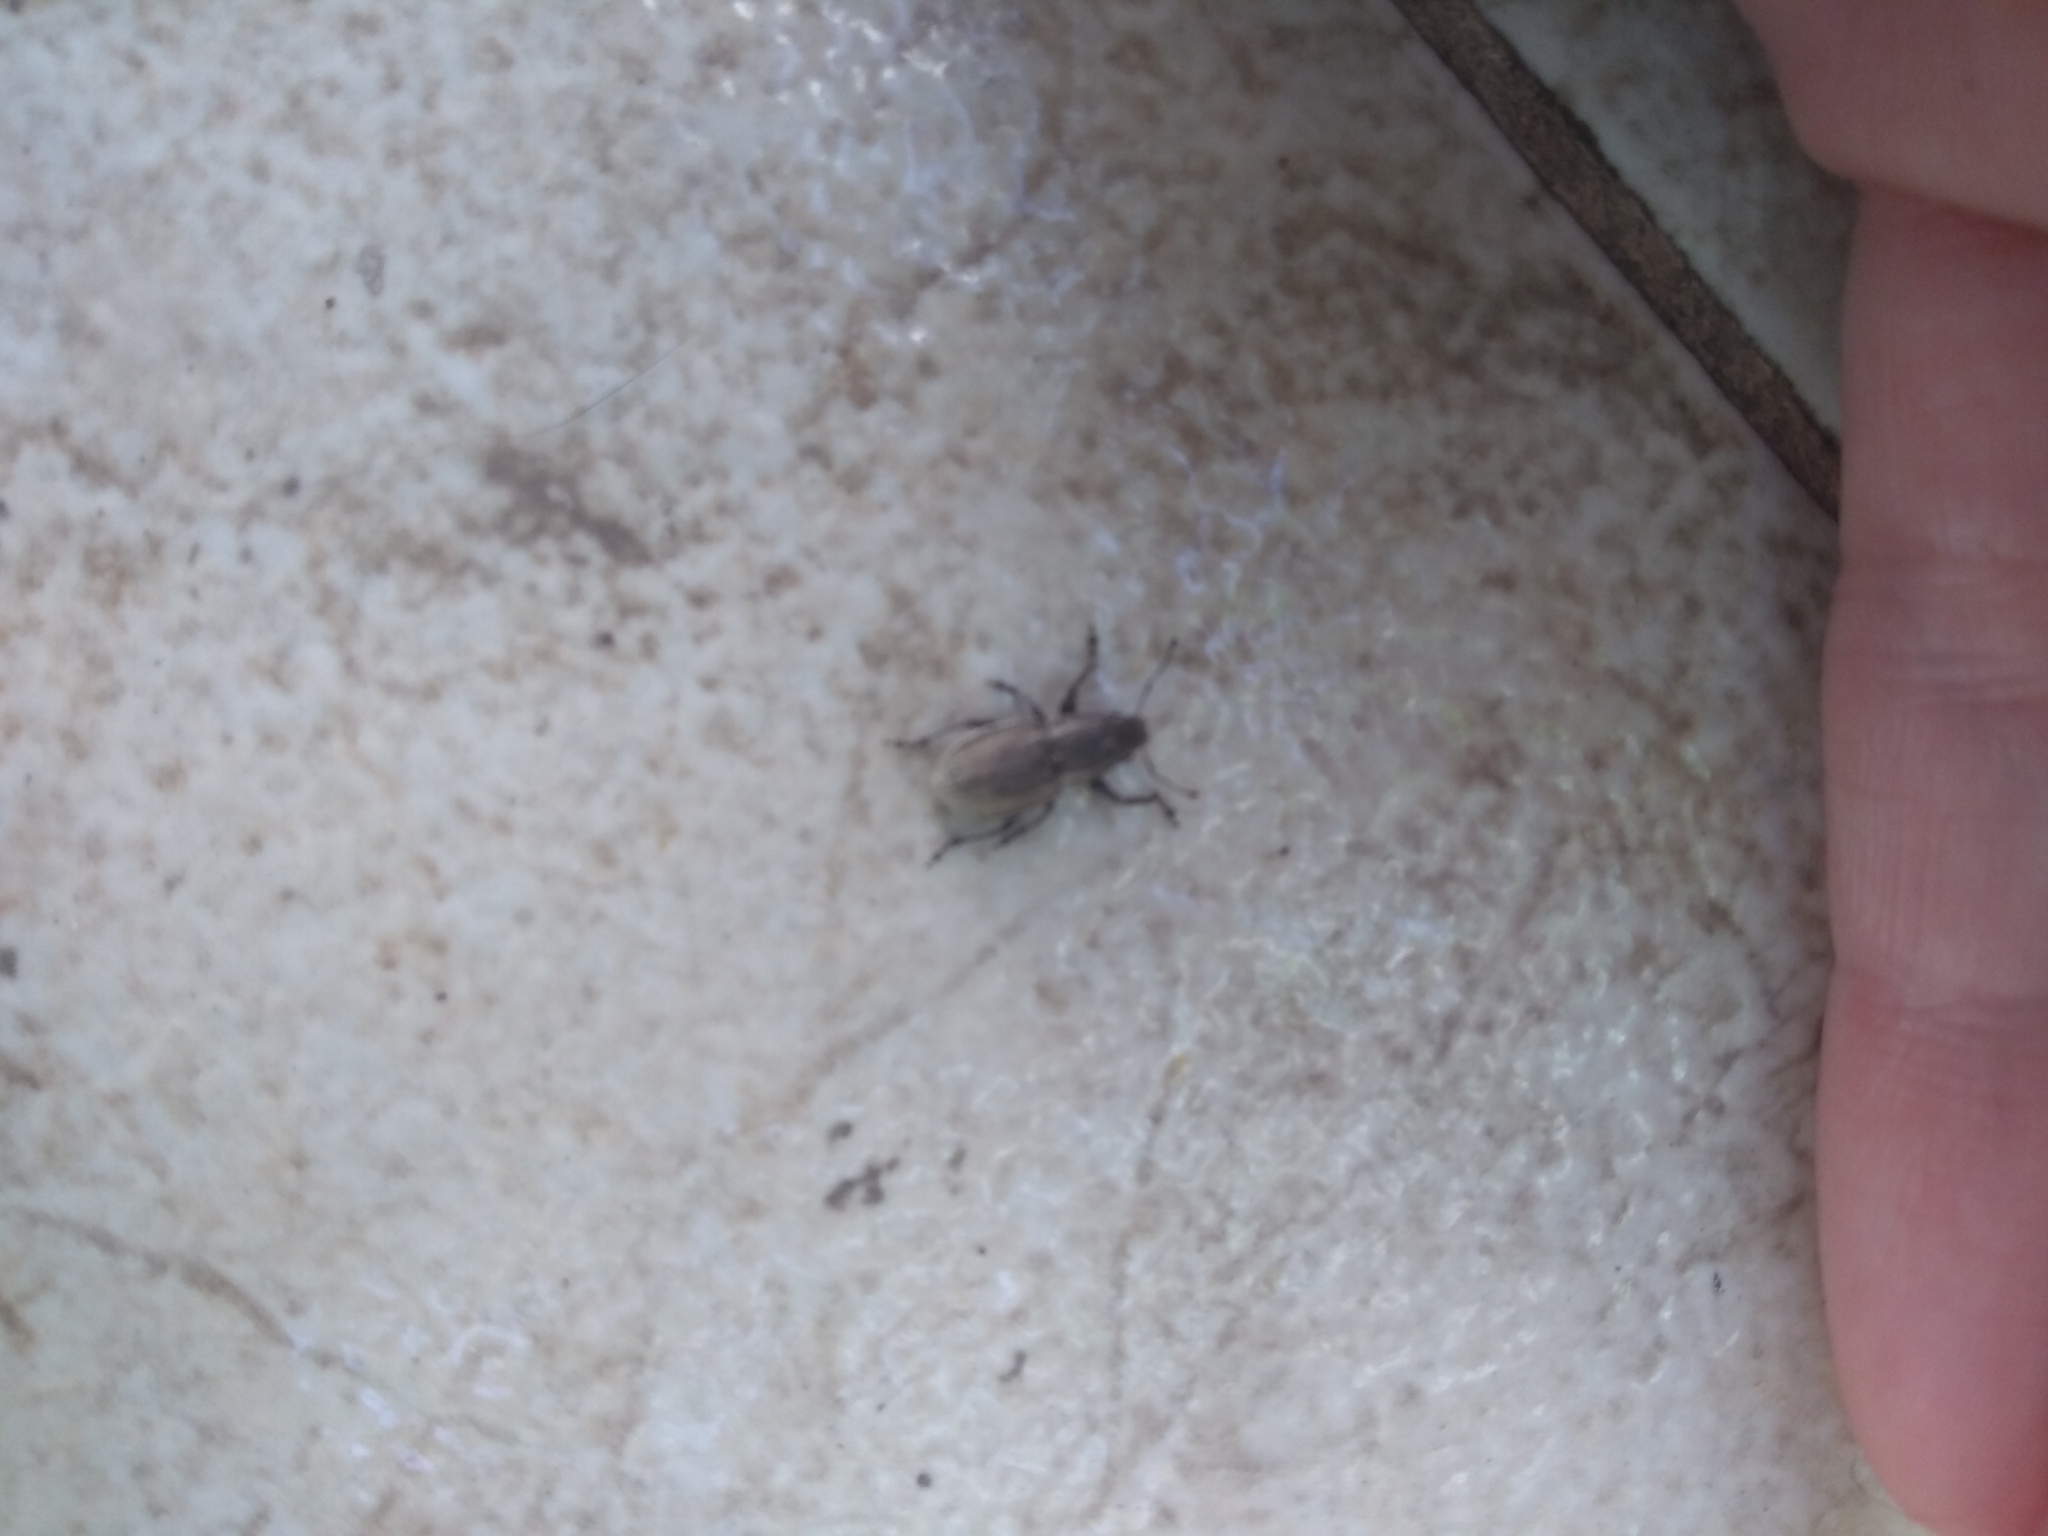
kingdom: Animalia
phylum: Arthropoda
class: Insecta
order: Coleoptera
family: Curculionidae
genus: Naupactus
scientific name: Naupactus leucoloma
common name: Whitefringed beetle
